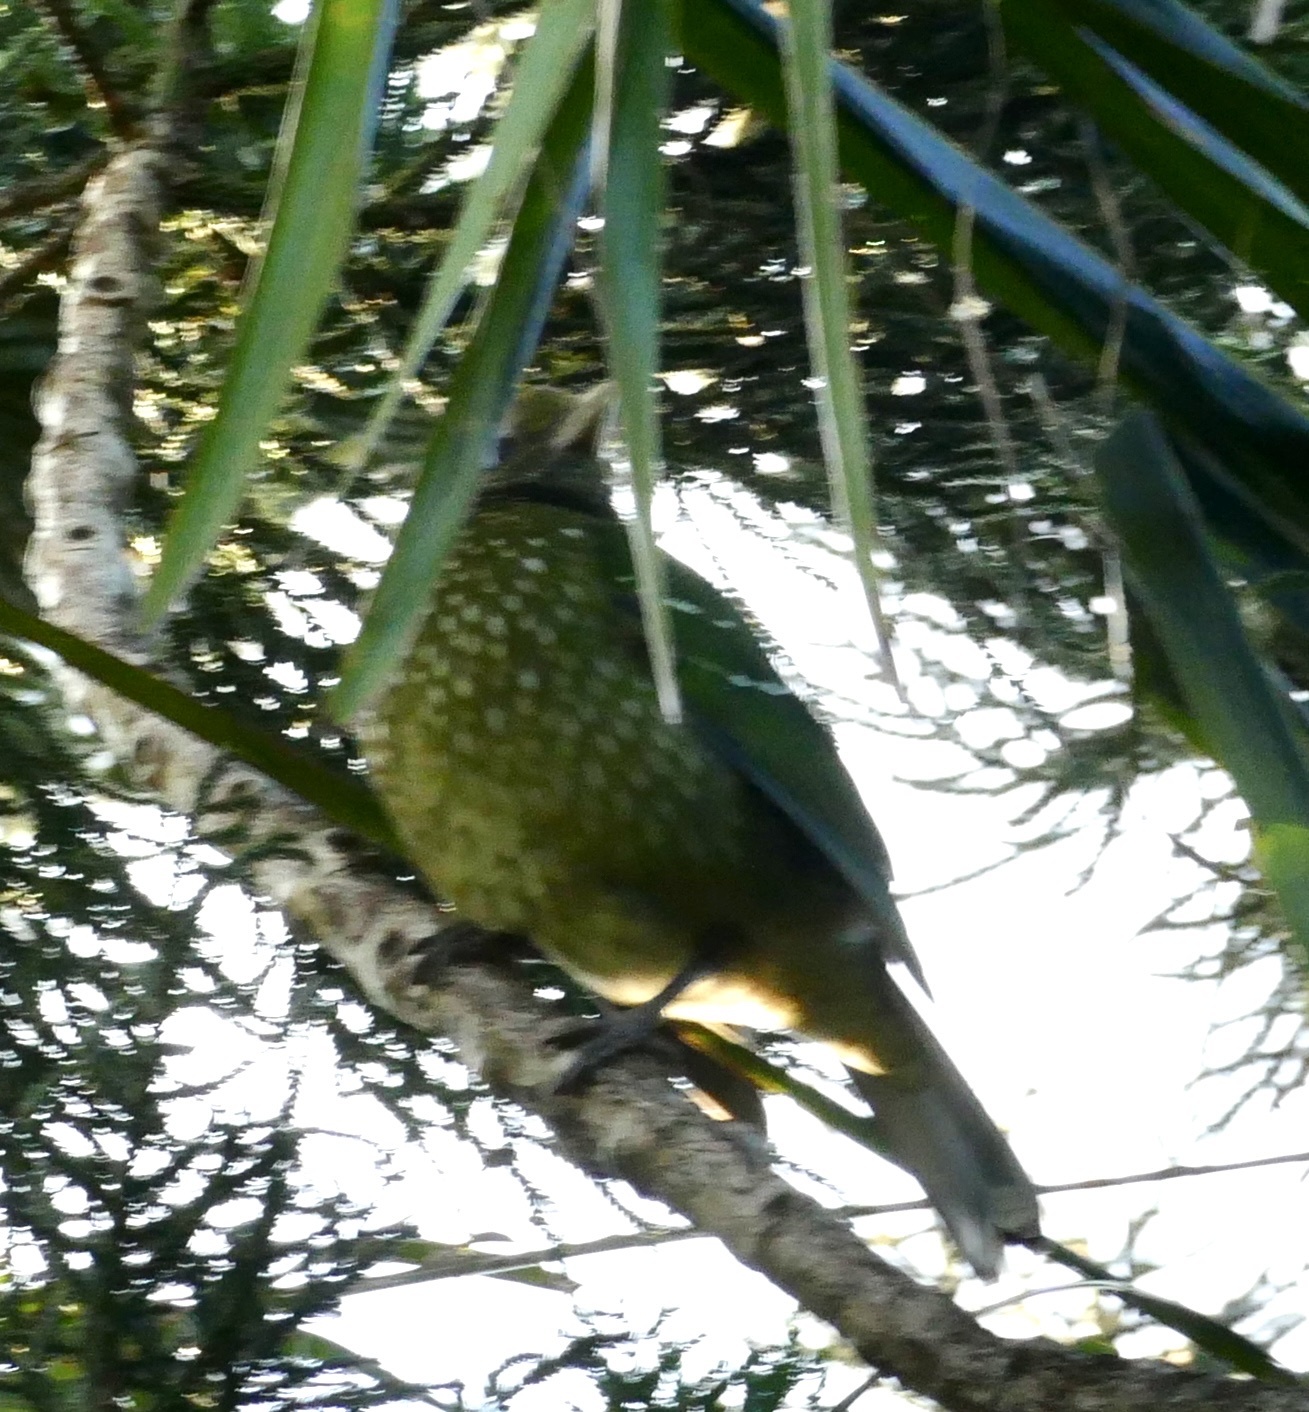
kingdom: Animalia
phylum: Chordata
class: Aves
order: Passeriformes
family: Ptilonorhynchidae
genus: Ailuroedus
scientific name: Ailuroedus crassirostris
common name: Green catbird
